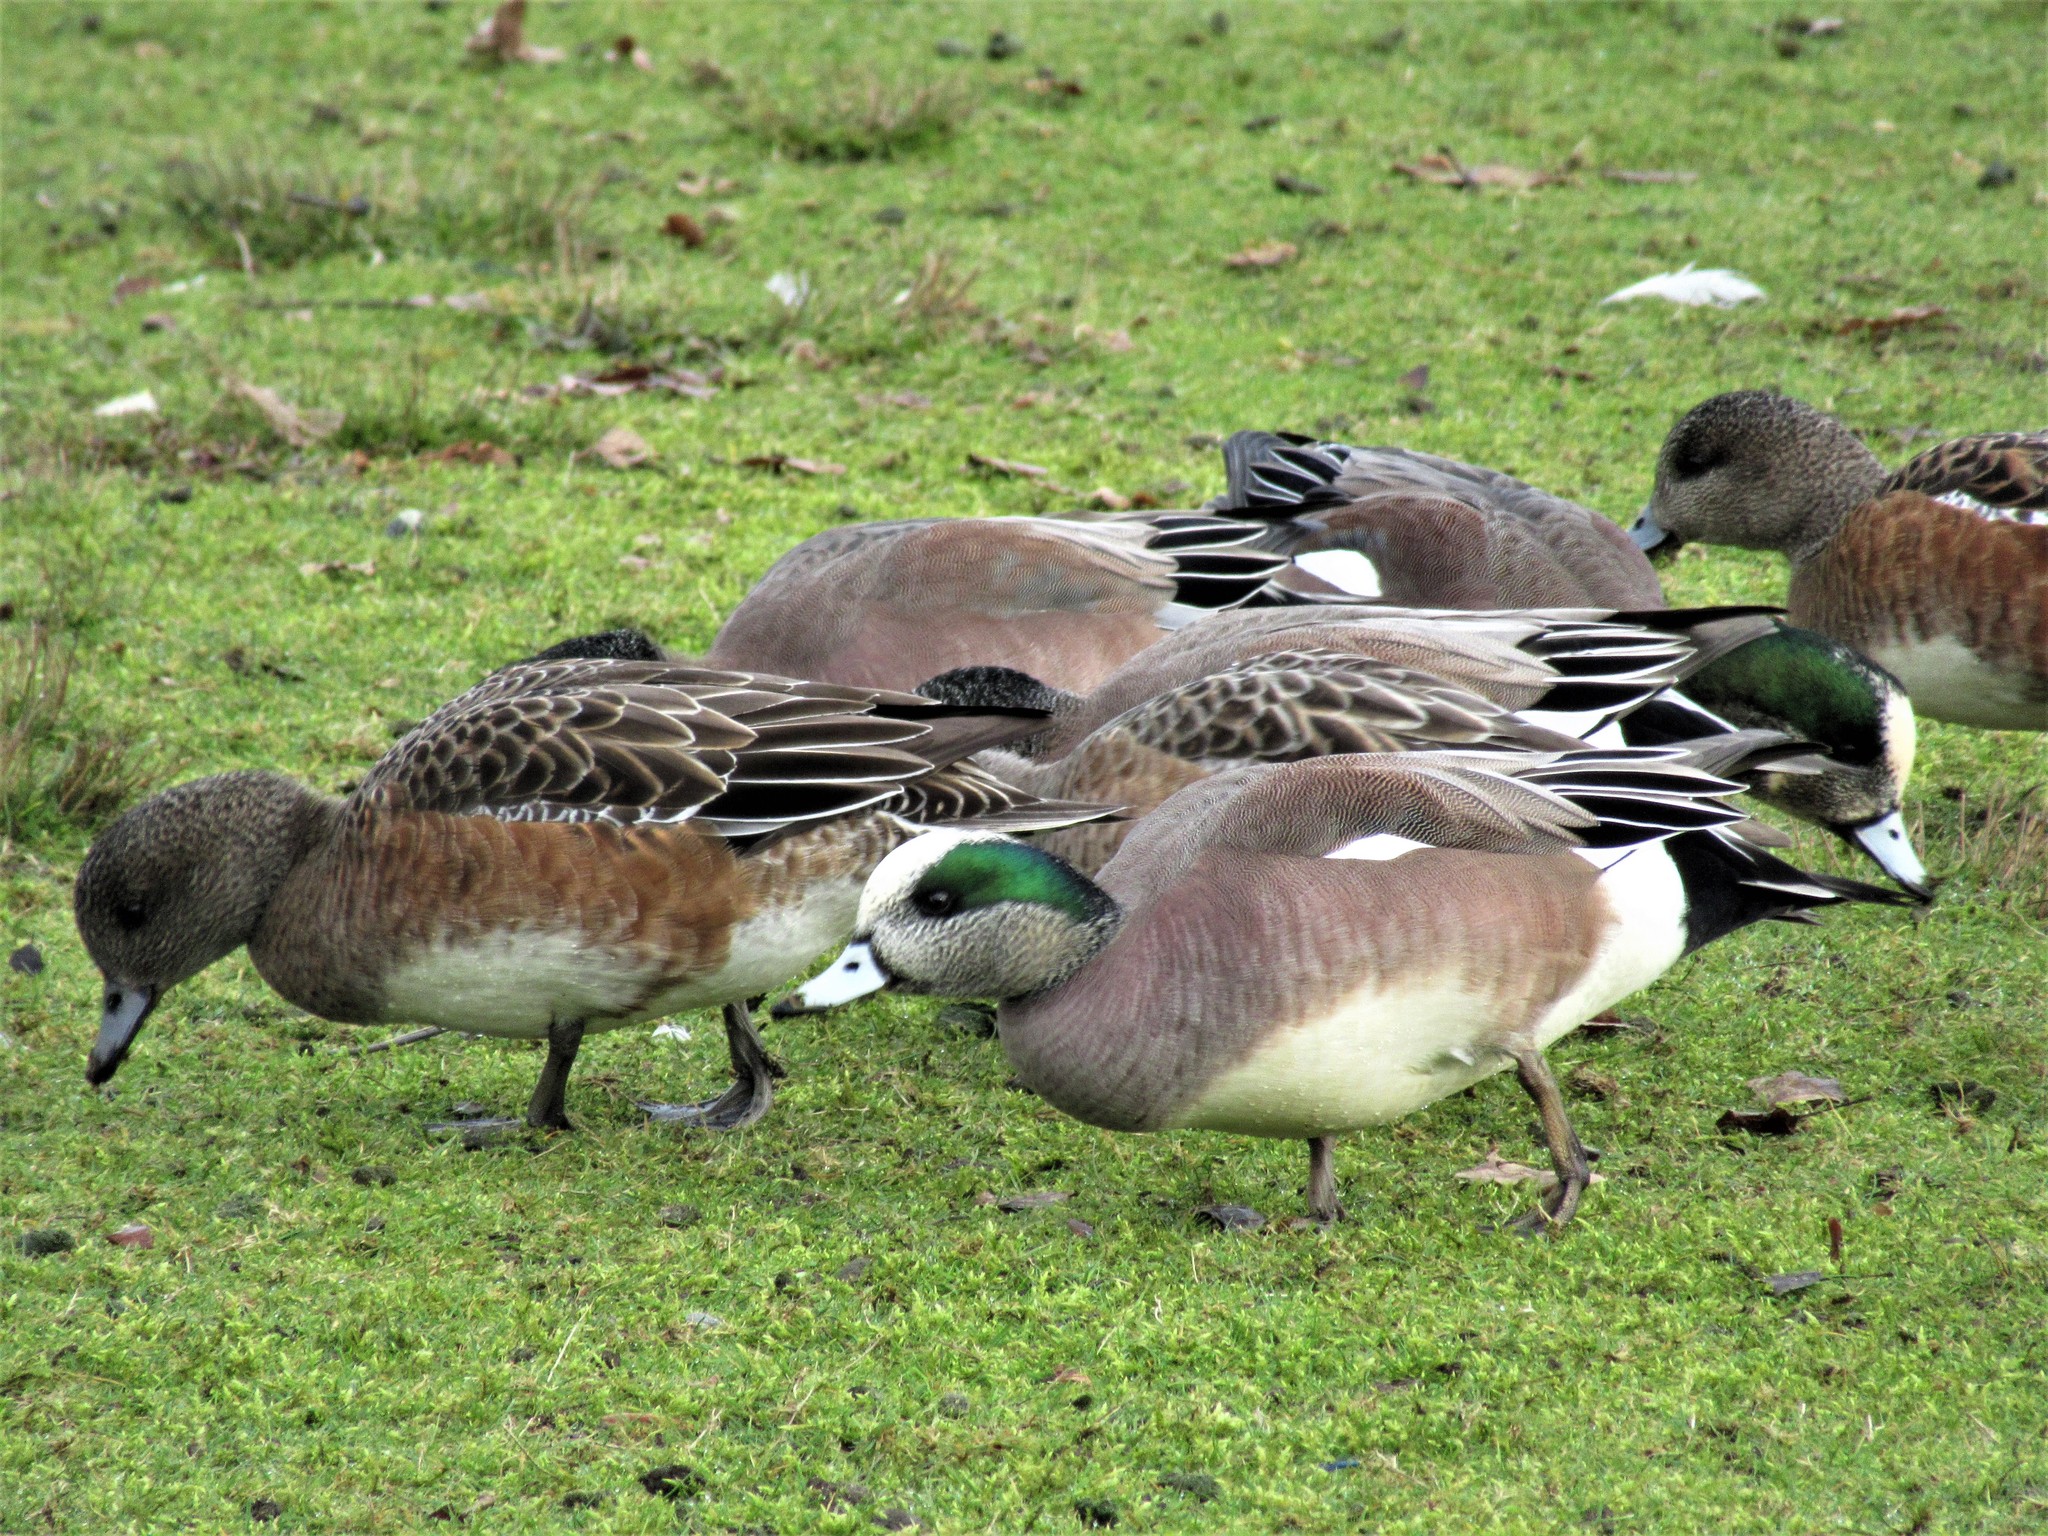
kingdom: Animalia
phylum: Chordata
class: Aves
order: Anseriformes
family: Anatidae
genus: Mareca
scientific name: Mareca americana
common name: American wigeon
